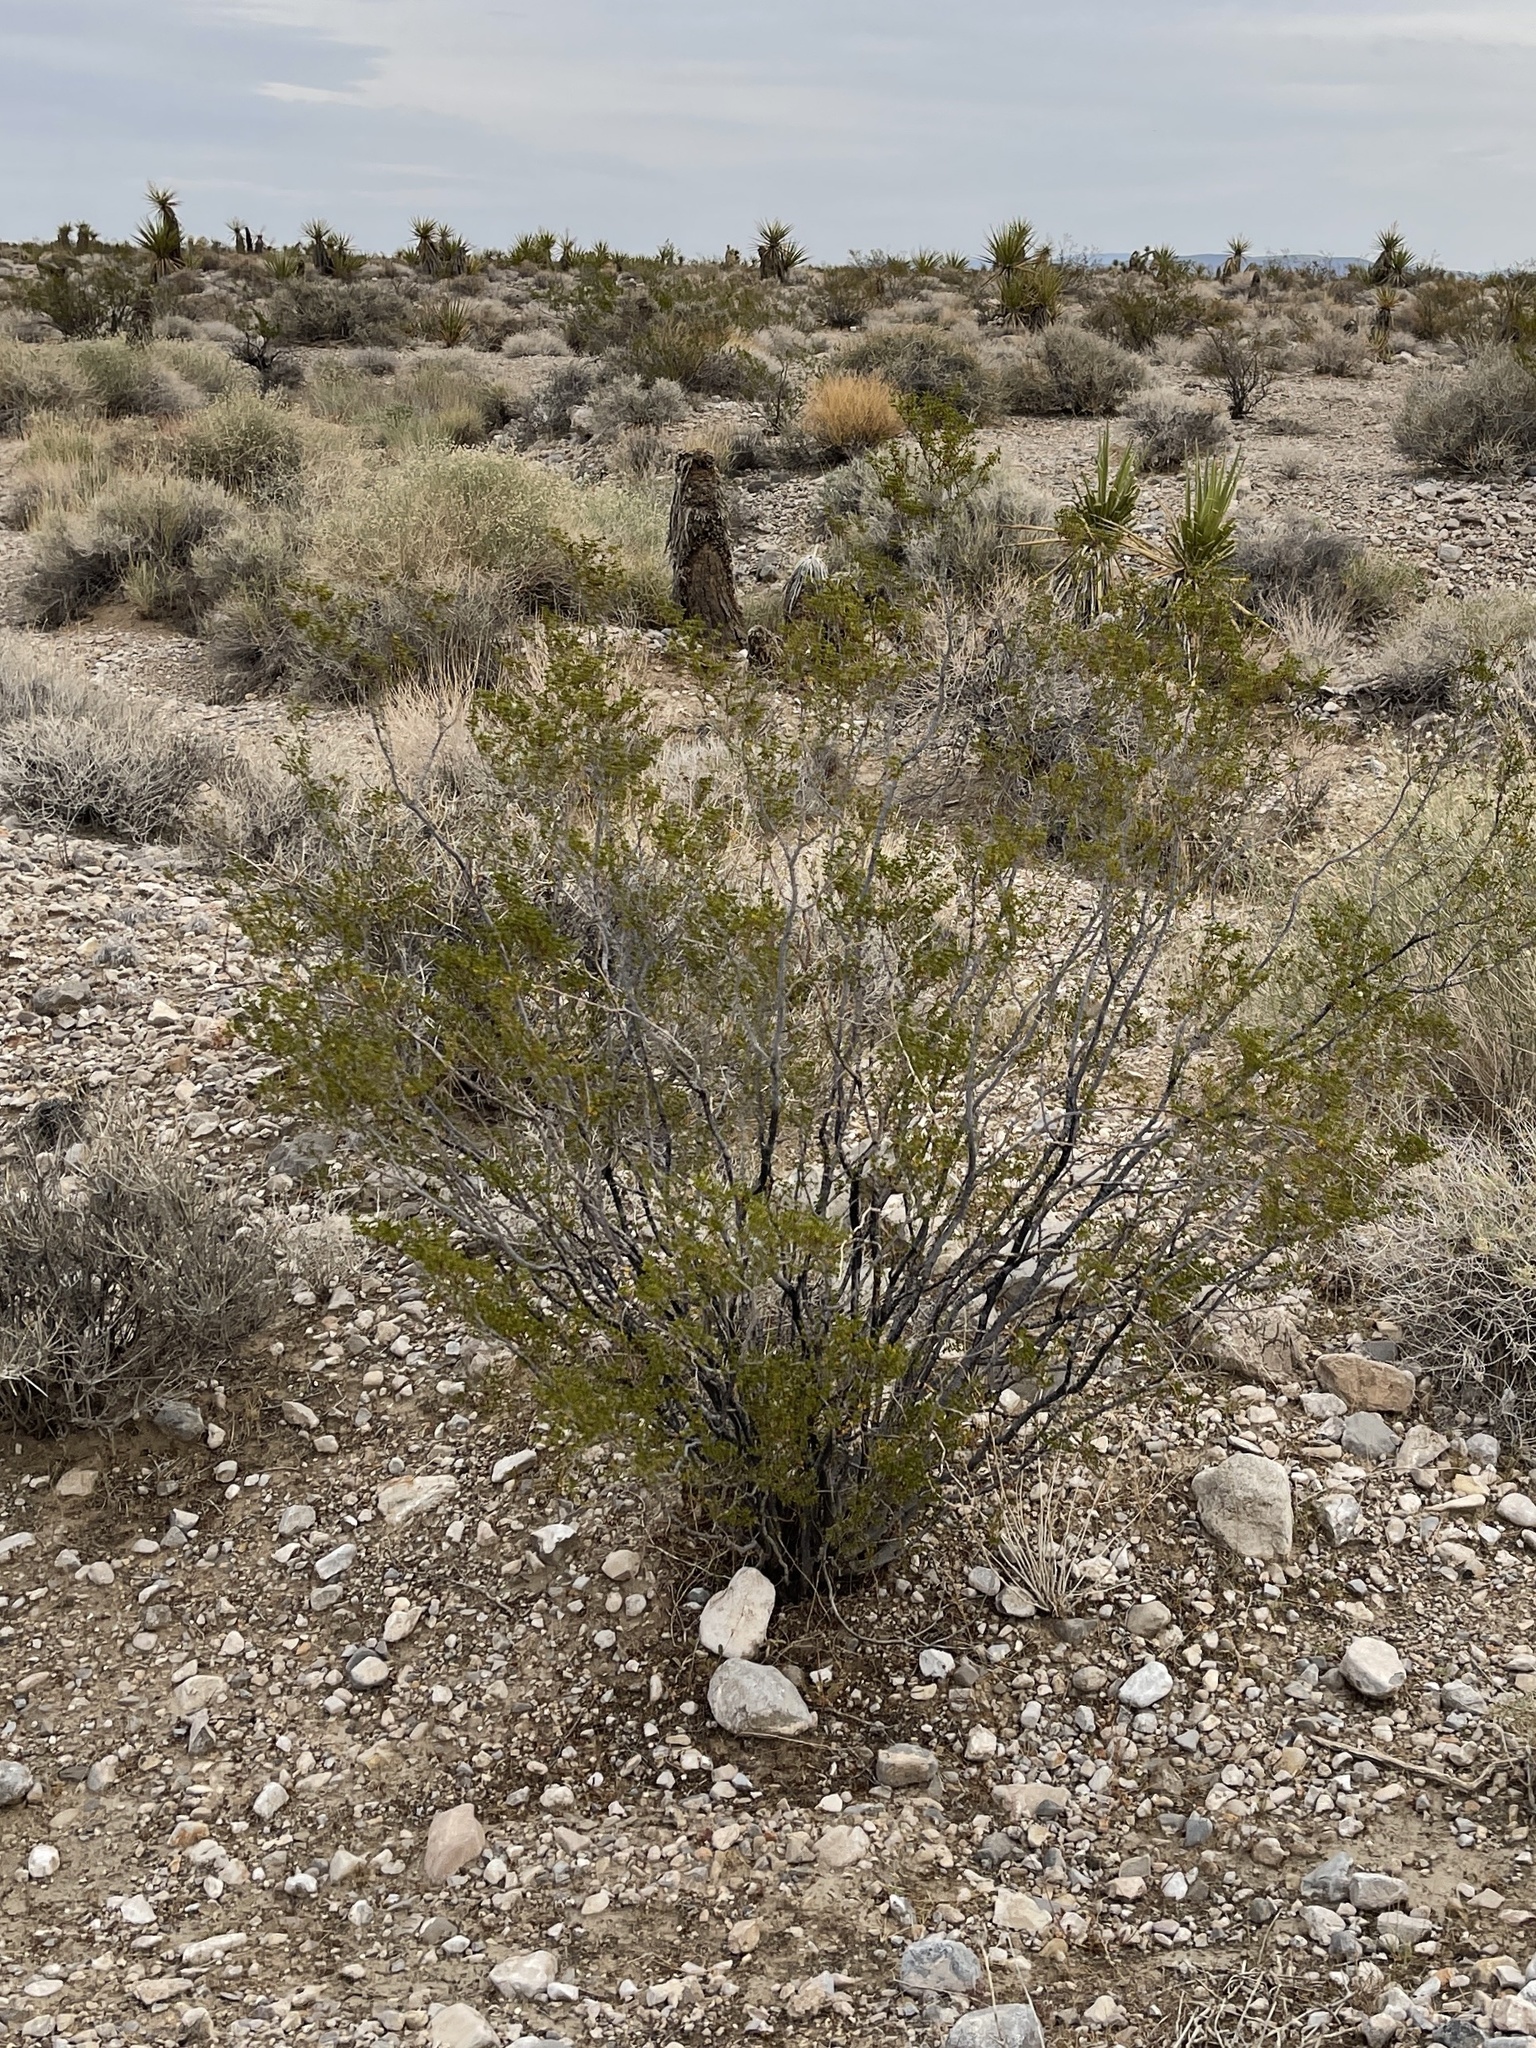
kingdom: Plantae
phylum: Tracheophyta
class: Magnoliopsida
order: Zygophyllales
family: Zygophyllaceae
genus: Larrea
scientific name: Larrea tridentata
